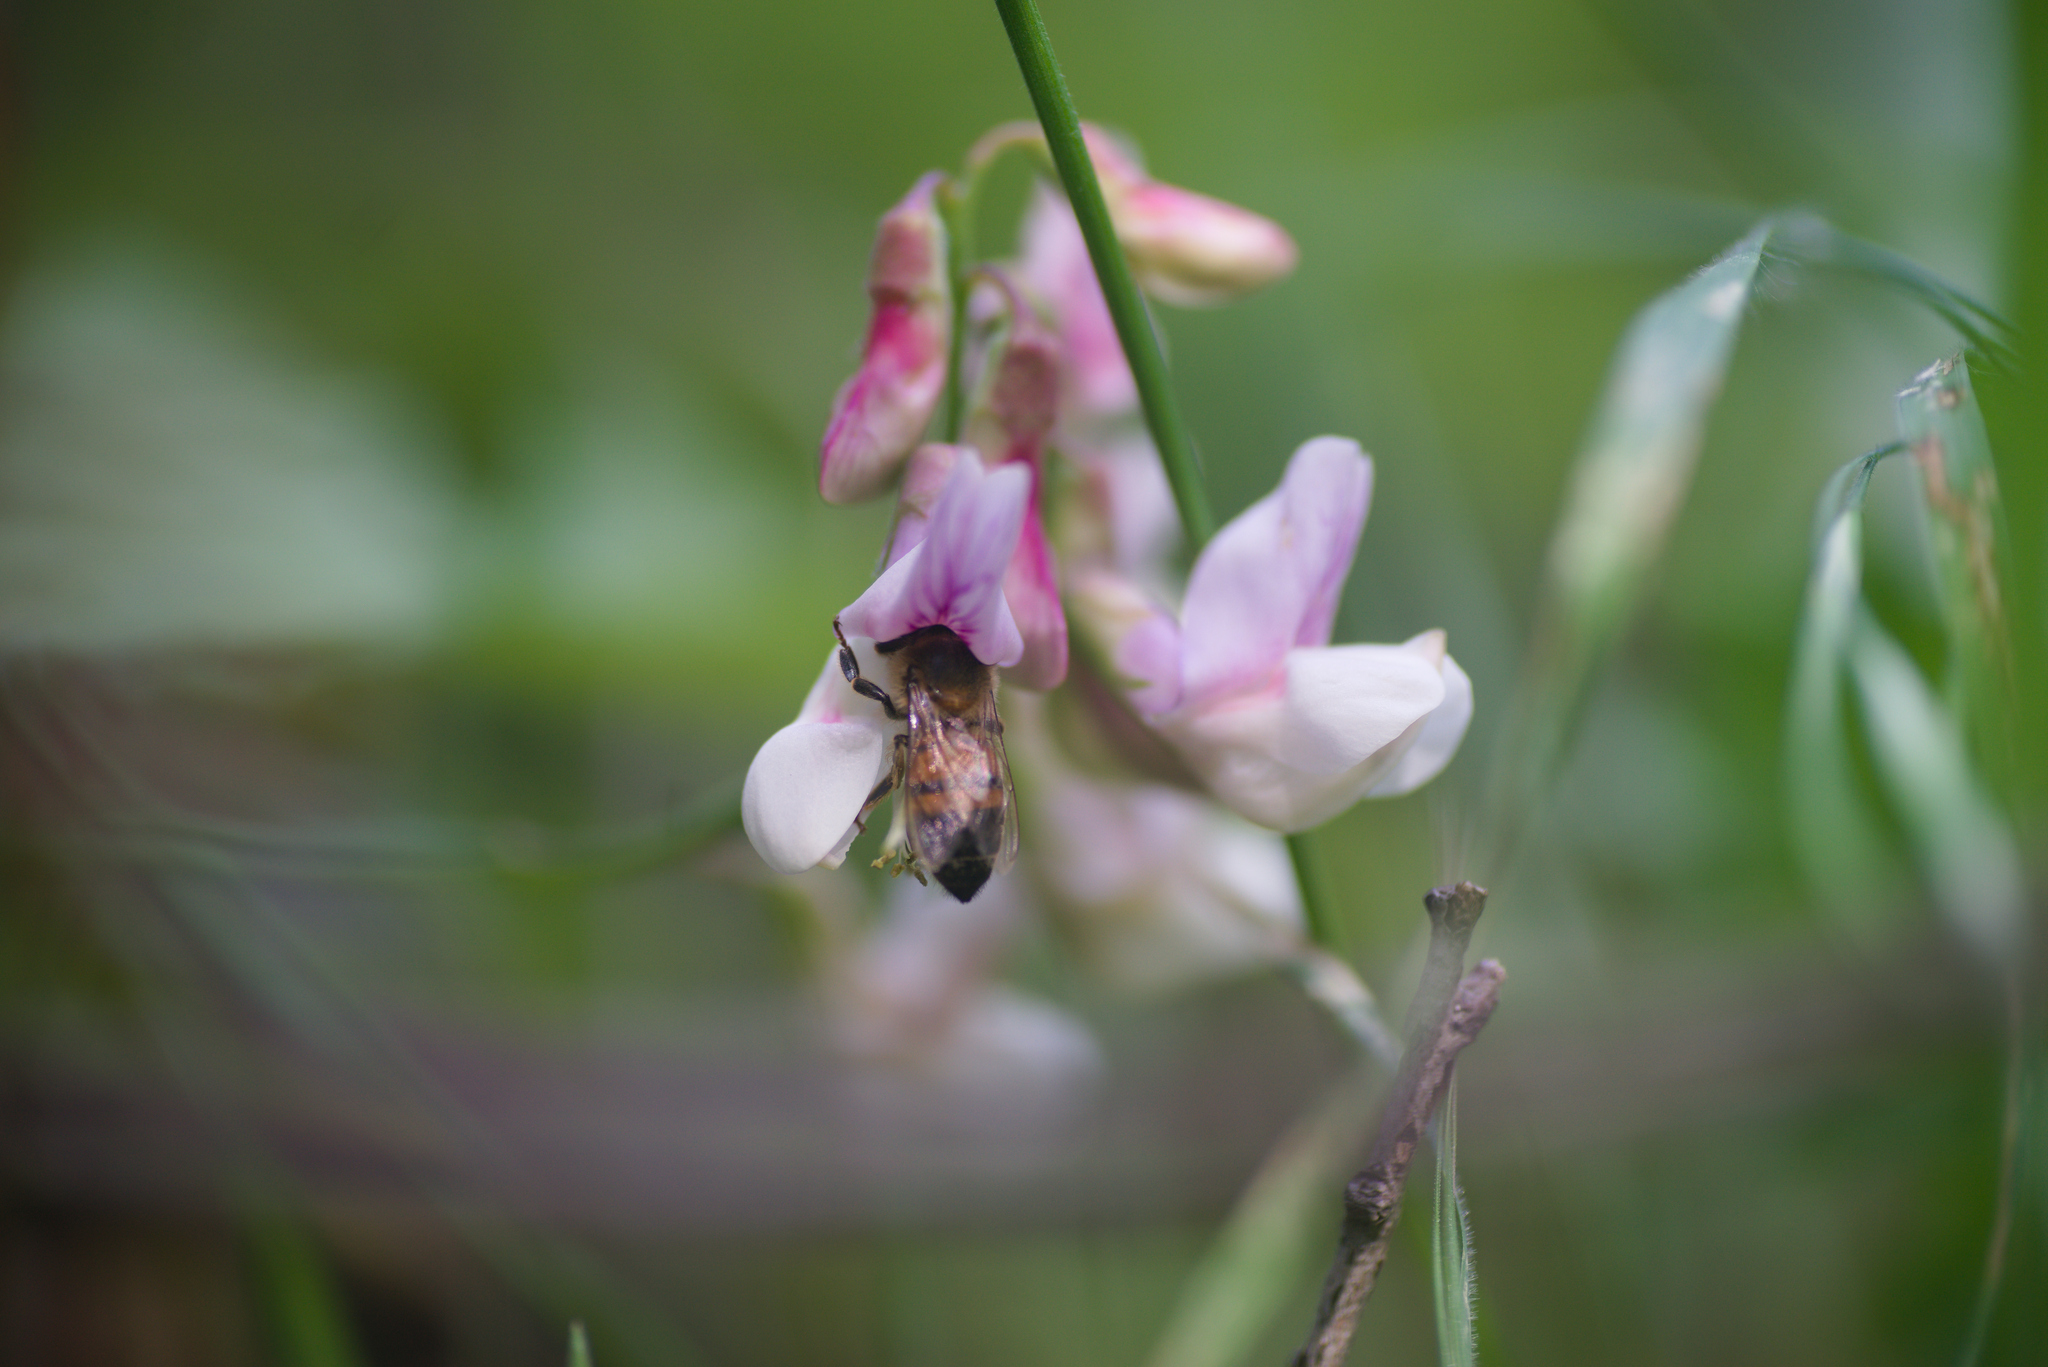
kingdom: Plantae
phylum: Tracheophyta
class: Magnoliopsida
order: Fabales
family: Fabaceae
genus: Lathyrus
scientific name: Lathyrus vestitus
